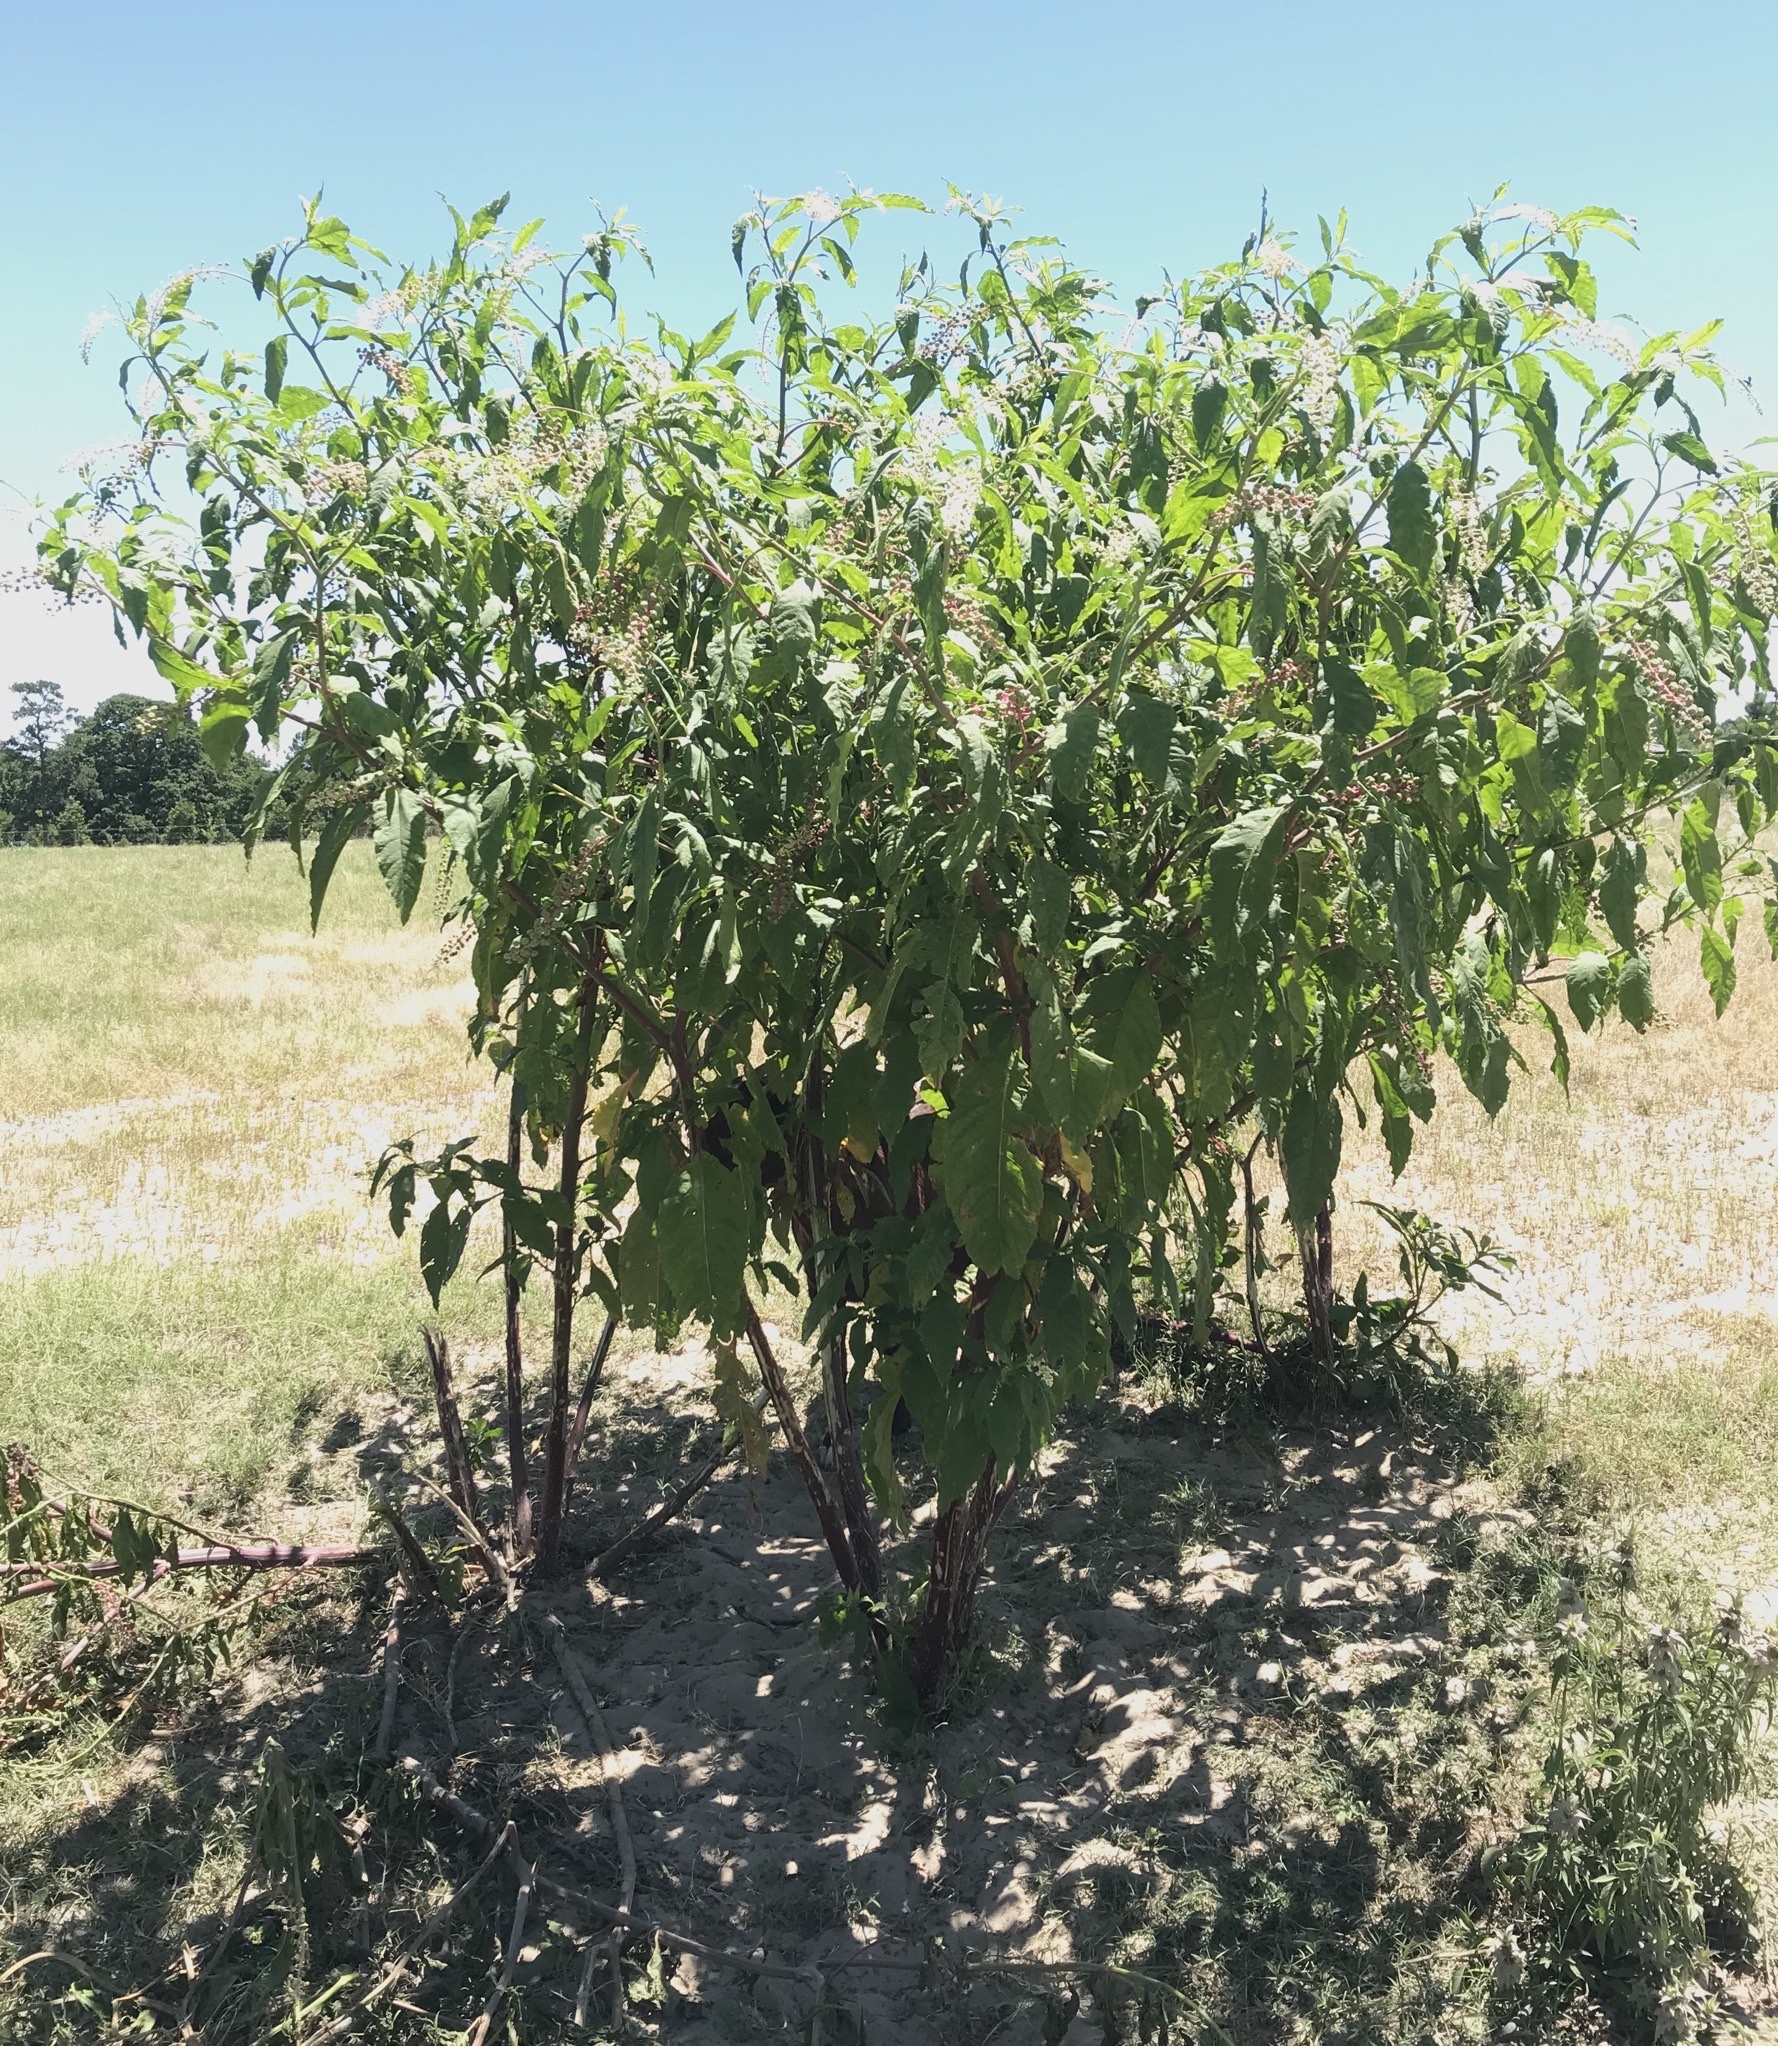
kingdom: Plantae
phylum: Tracheophyta
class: Magnoliopsida
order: Caryophyllales
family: Phytolaccaceae
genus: Phytolacca
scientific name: Phytolacca americana
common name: American pokeweed
